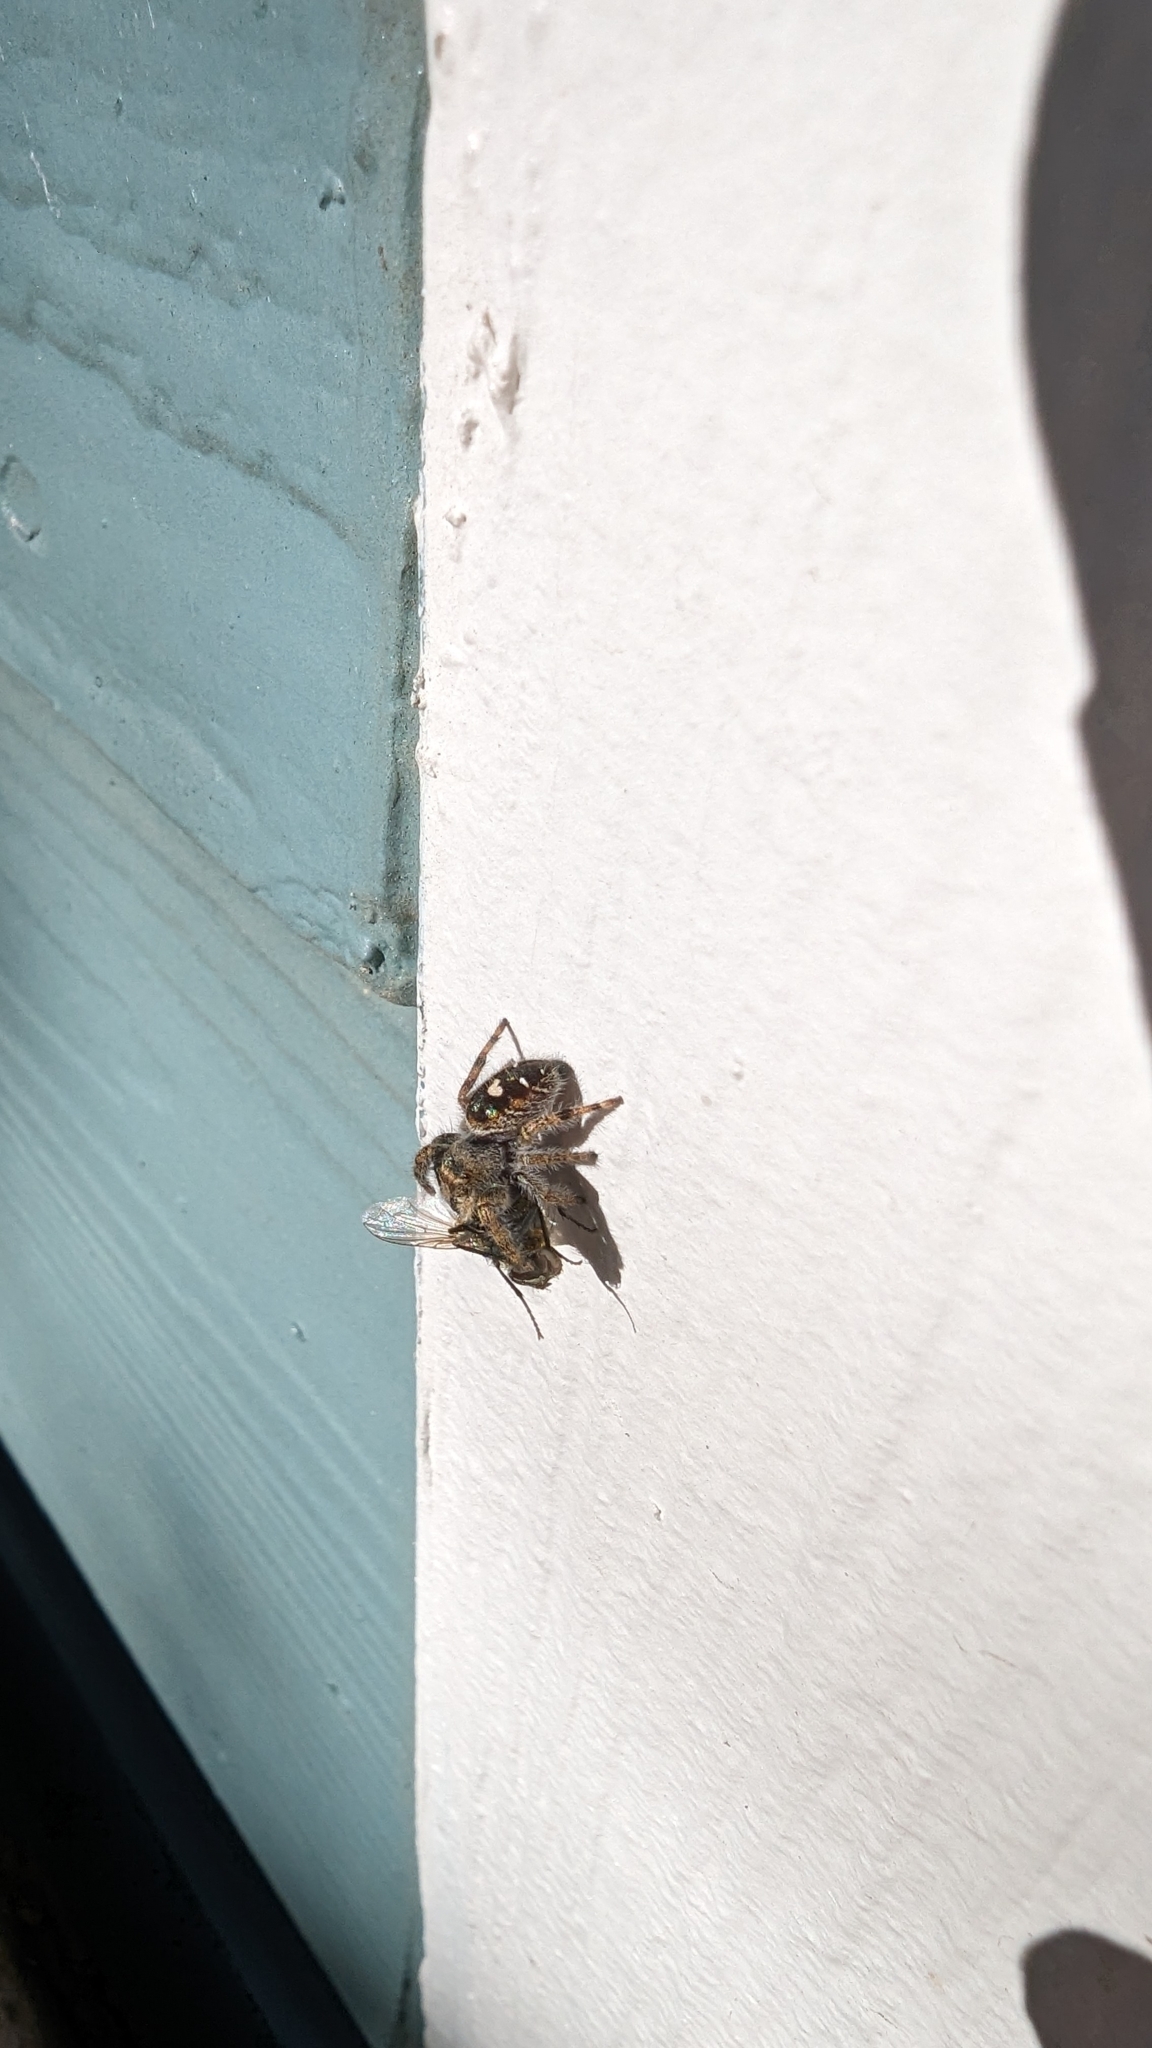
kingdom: Animalia
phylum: Arthropoda
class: Arachnida
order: Araneae
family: Salticidae
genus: Phidippus
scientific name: Phidippus audax
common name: Bold jumper
